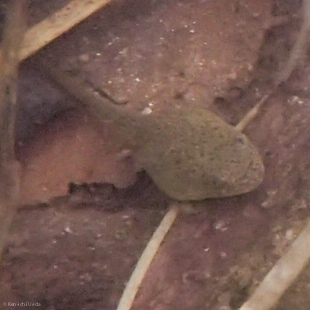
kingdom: Animalia
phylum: Chordata
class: Amphibia
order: Anura
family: Ranidae
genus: Lithobates
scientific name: Lithobates catesbeianus
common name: American bullfrog
